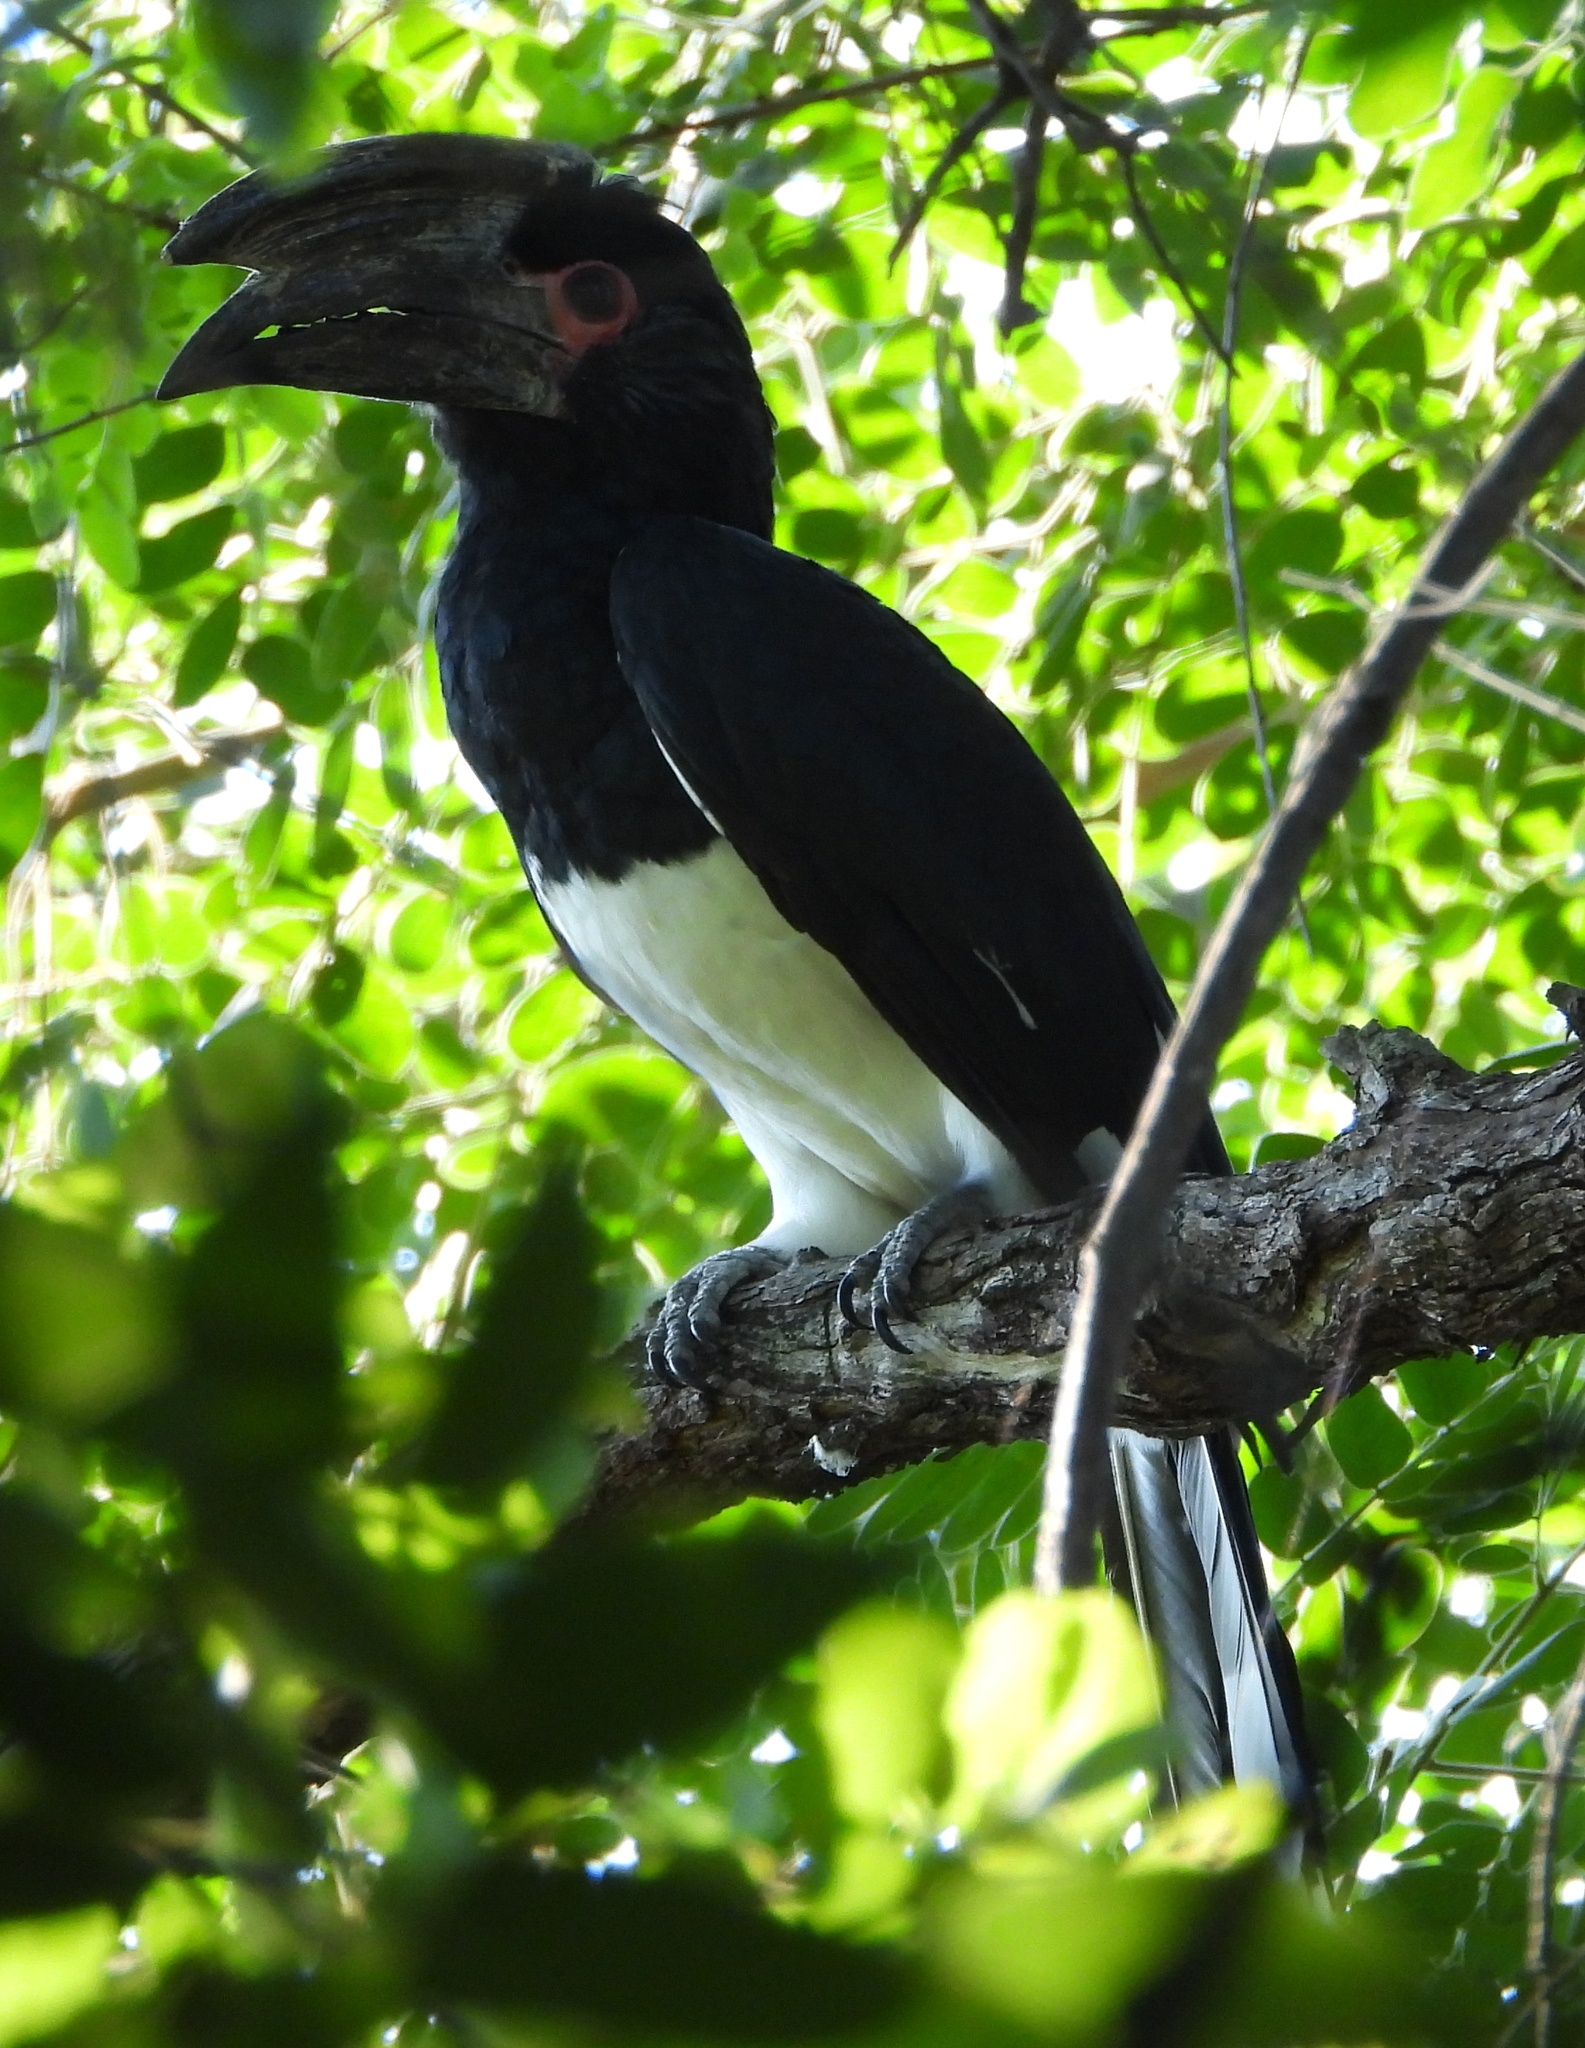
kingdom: Animalia
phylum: Chordata
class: Aves
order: Bucerotiformes
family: Bucerotidae
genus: Bycanistes
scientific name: Bycanistes bucinator
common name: Trumpeter hornbill
